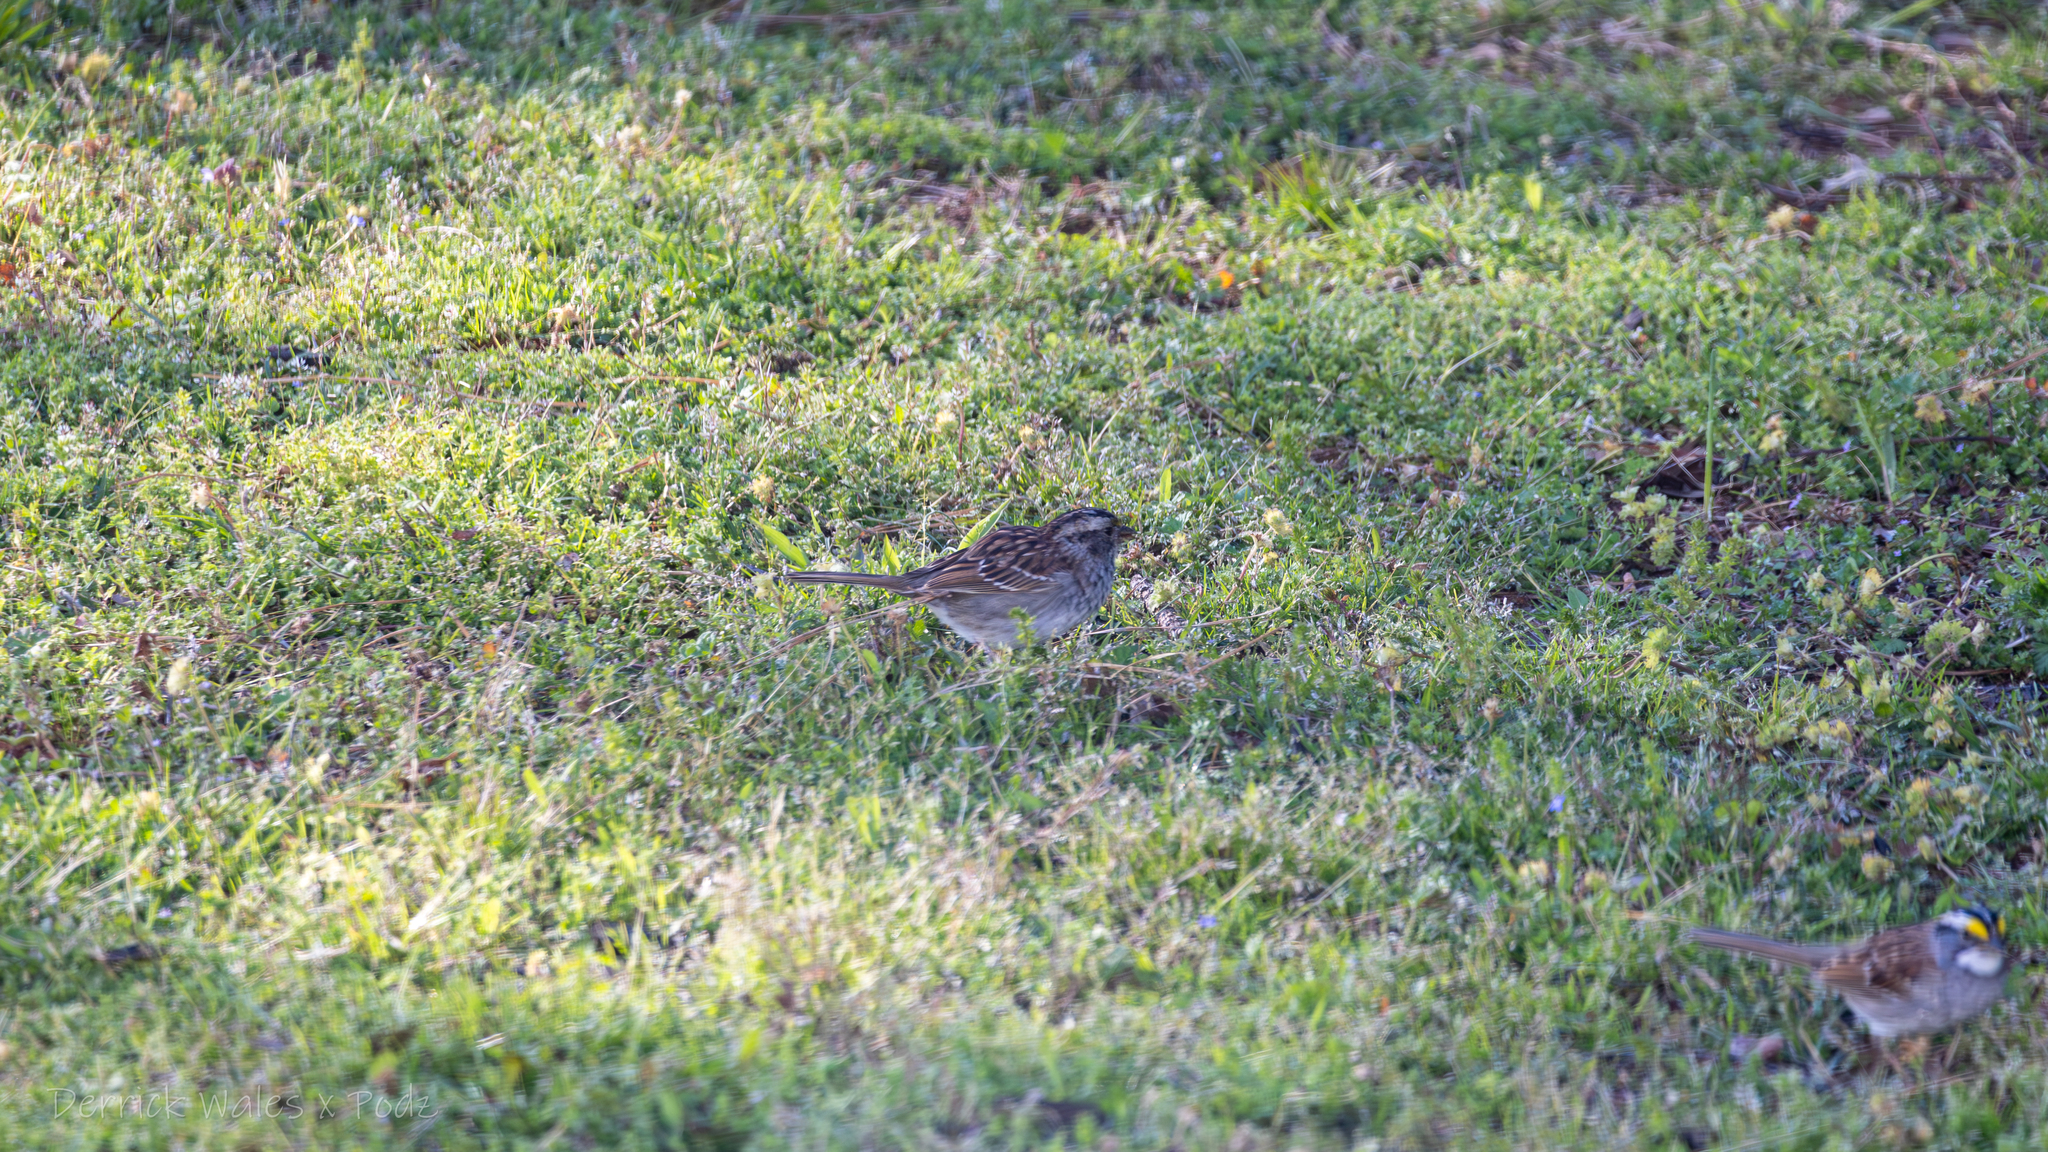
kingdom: Animalia
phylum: Chordata
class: Aves
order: Passeriformes
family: Passerellidae
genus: Zonotrichia
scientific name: Zonotrichia albicollis
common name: White-throated sparrow
